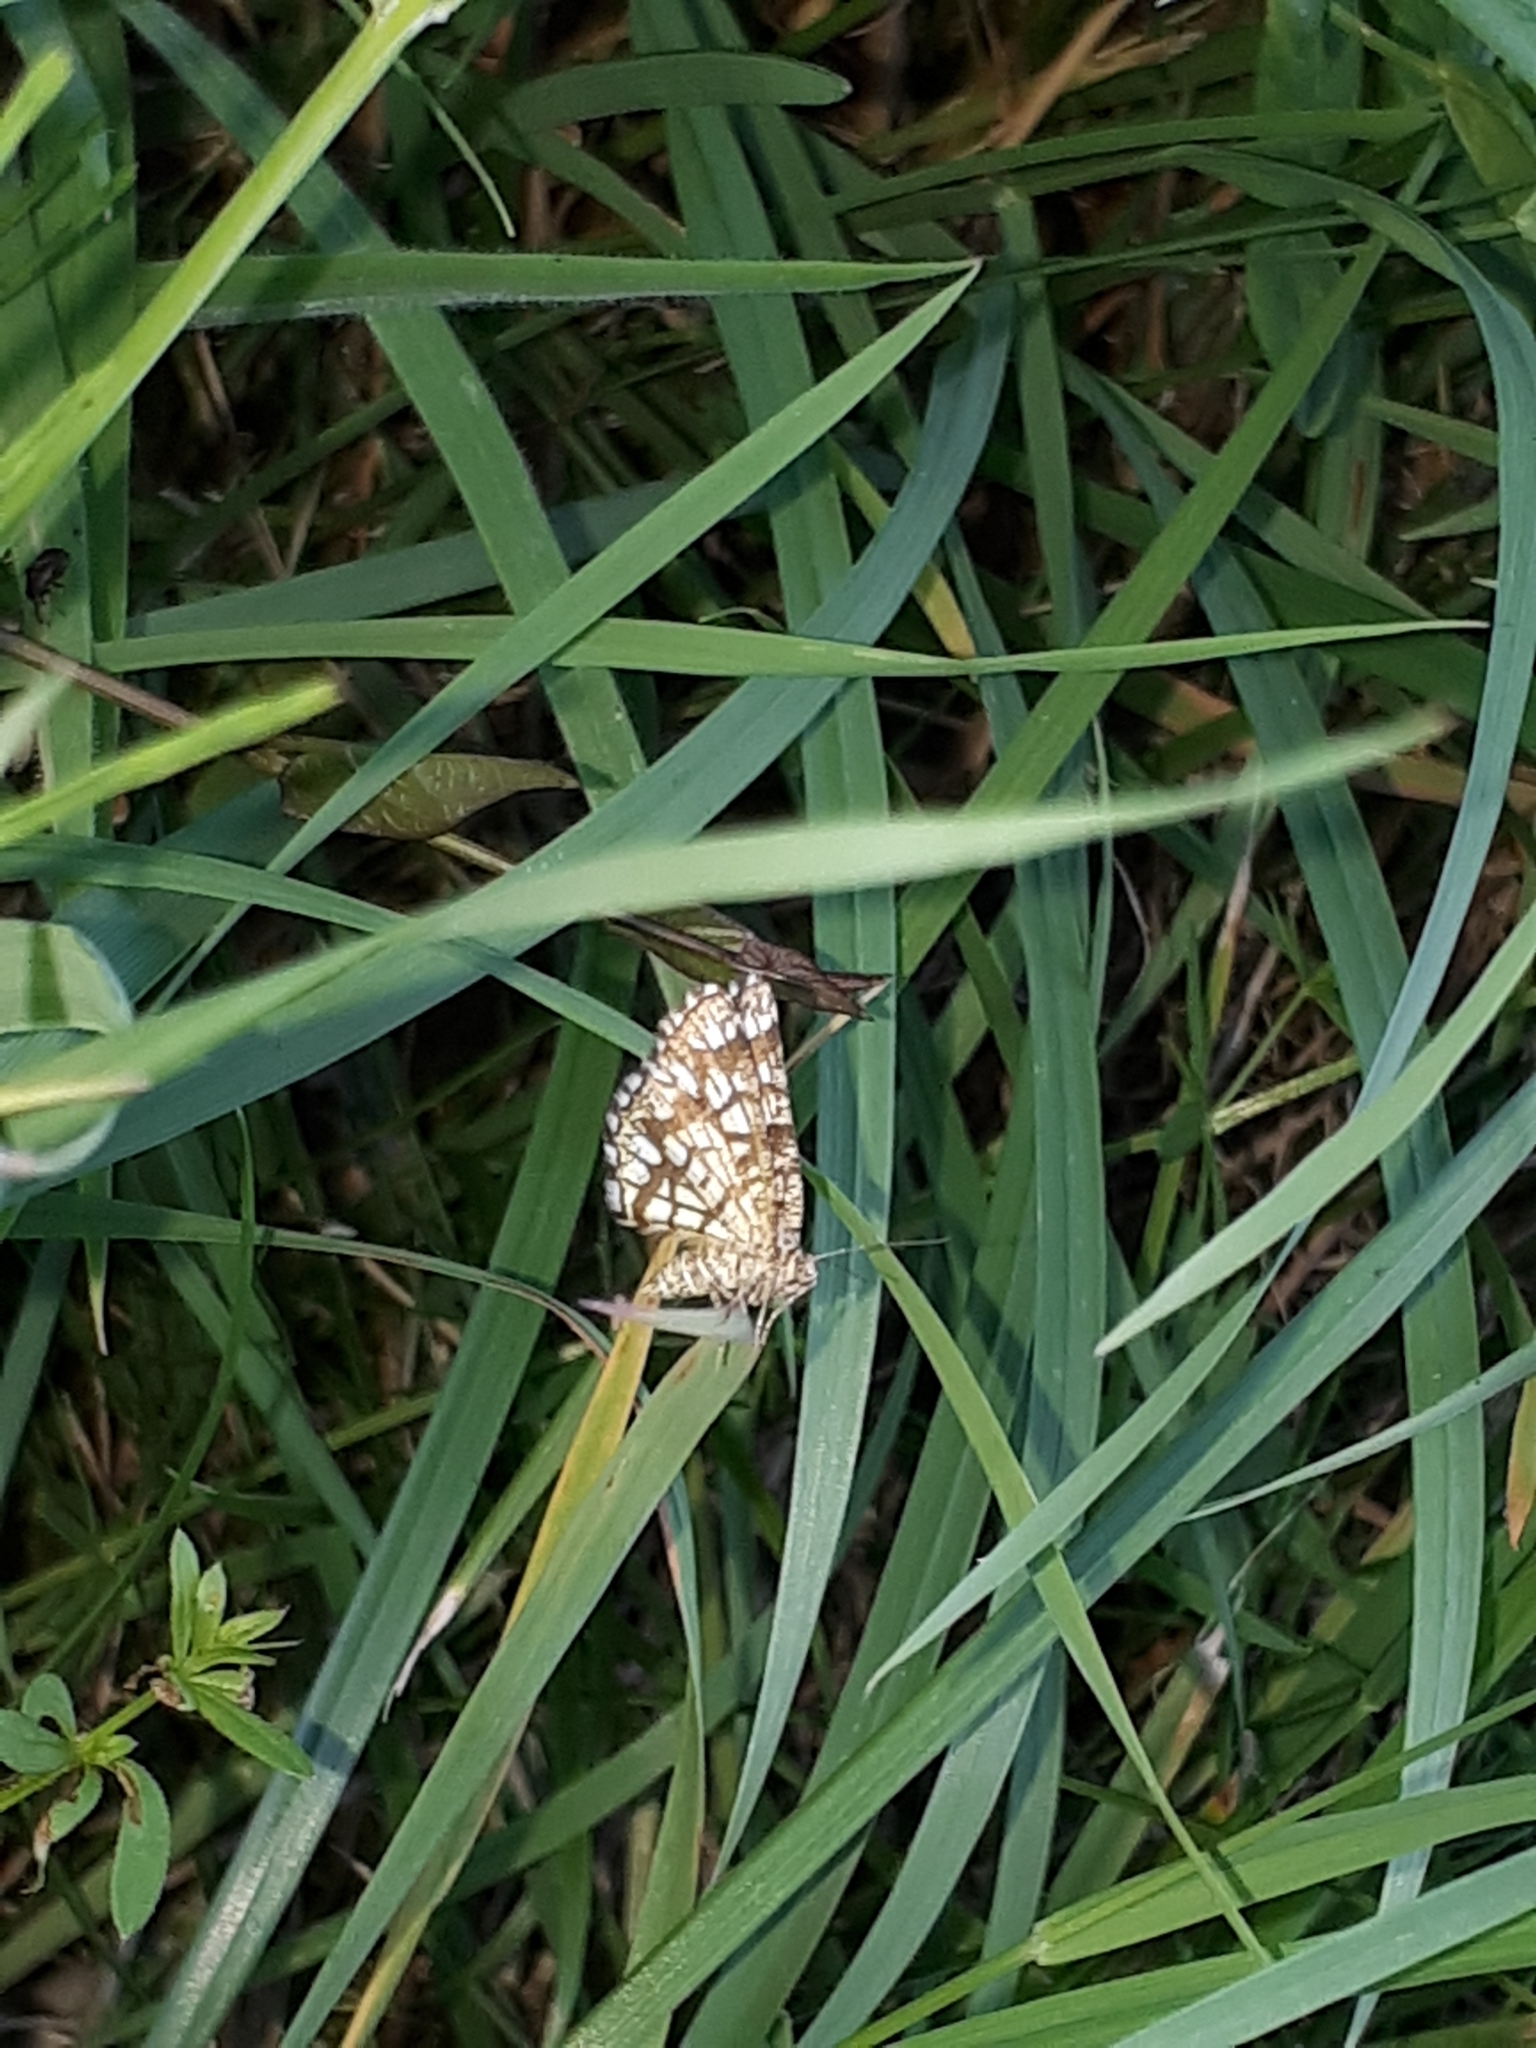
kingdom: Animalia
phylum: Arthropoda
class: Insecta
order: Lepidoptera
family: Geometridae
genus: Chiasmia
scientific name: Chiasmia clathrata
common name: Latticed heath
